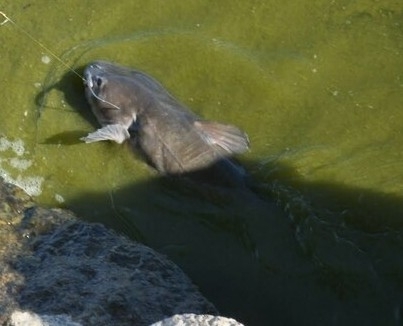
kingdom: Animalia
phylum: Chordata
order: Siluriformes
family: Ictaluridae
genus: Ictalurus
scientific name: Ictalurus punctatus
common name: Channel catfish
